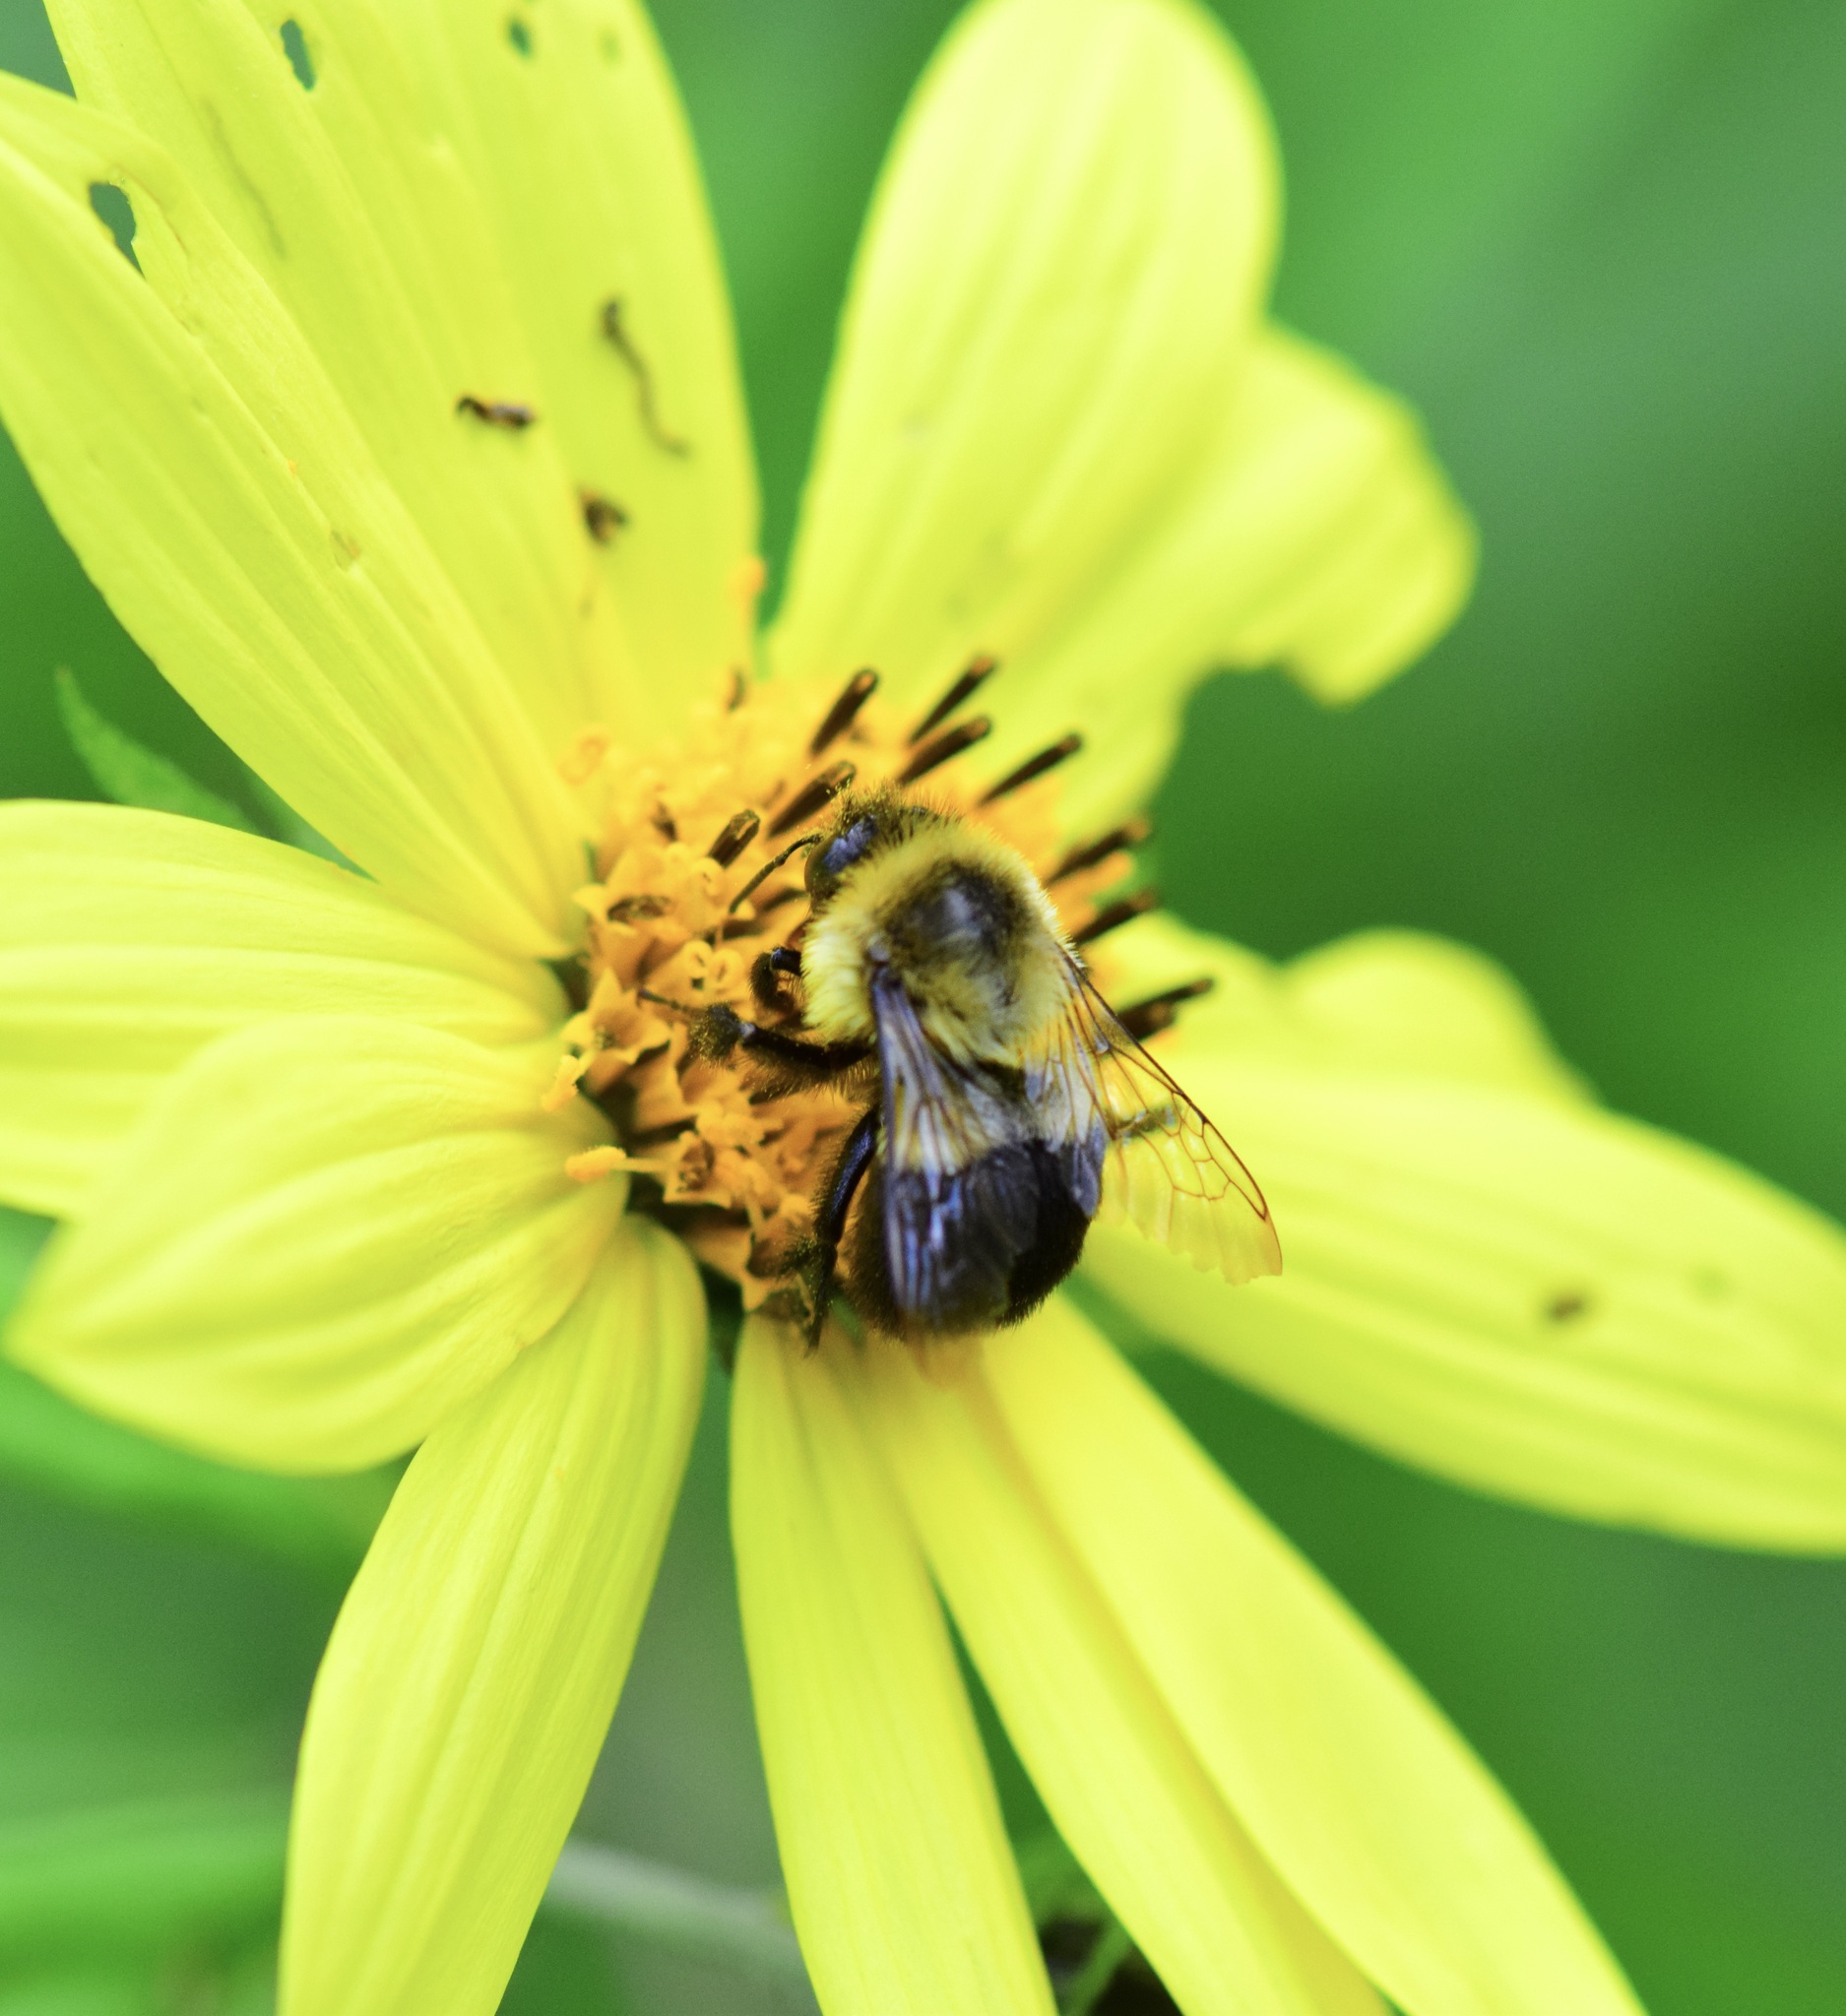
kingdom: Animalia
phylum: Arthropoda
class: Insecta
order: Hymenoptera
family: Apidae
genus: Bombus
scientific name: Bombus impatiens
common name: Common eastern bumble bee
